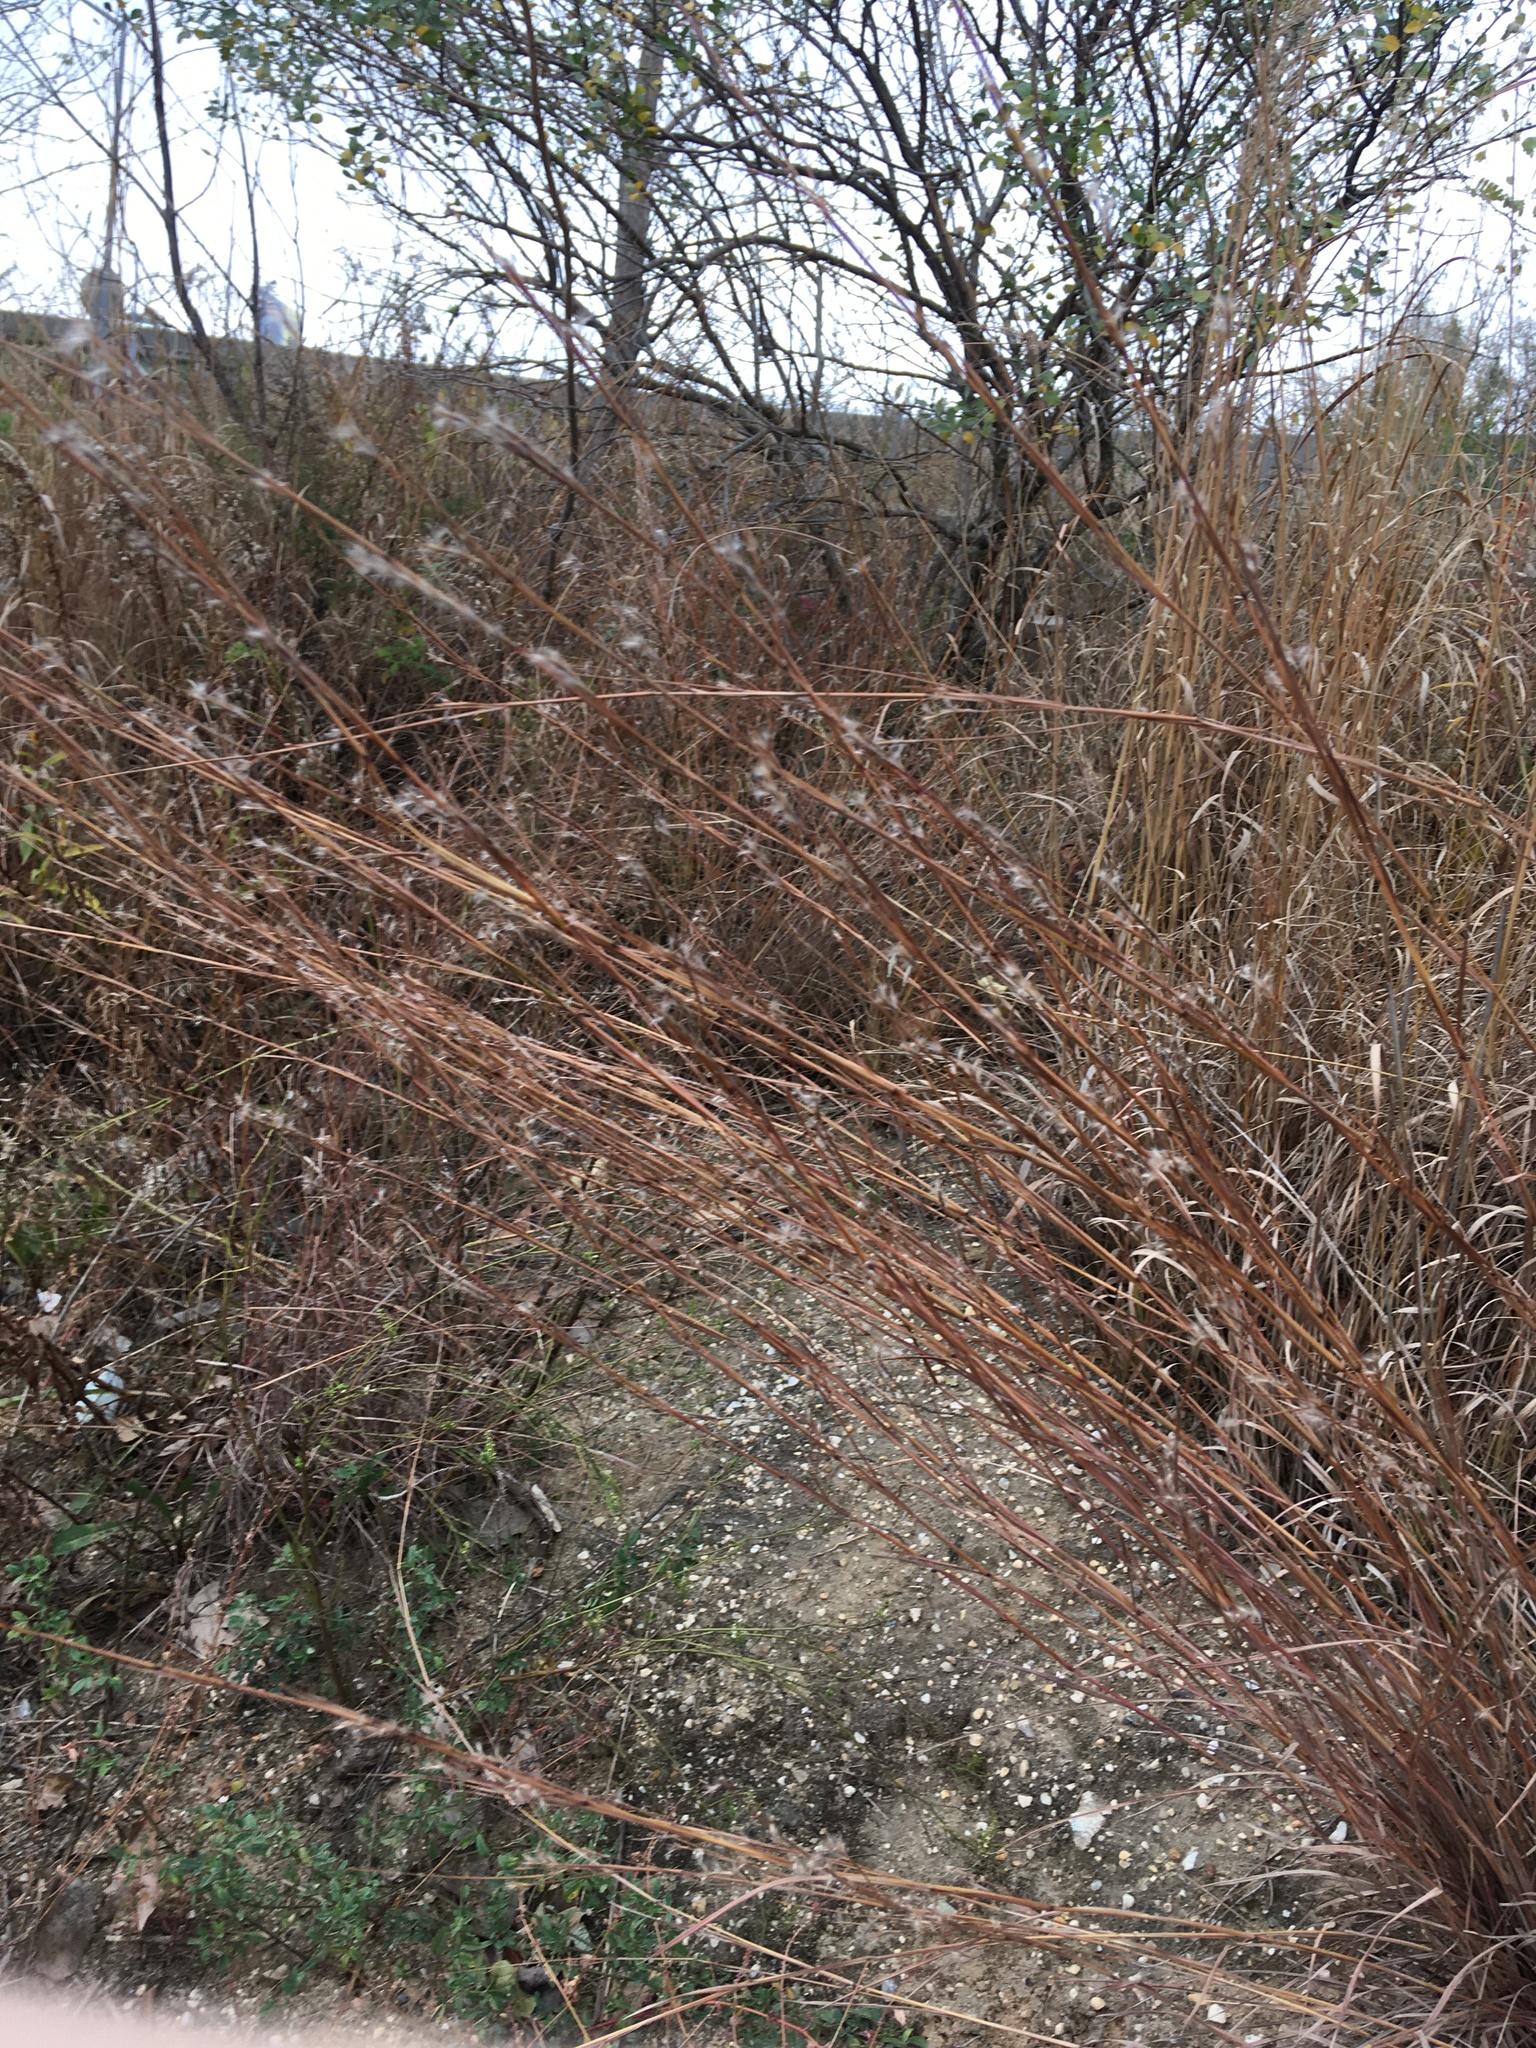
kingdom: Plantae
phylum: Tracheophyta
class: Liliopsida
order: Poales
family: Poaceae
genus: Schizachyrium
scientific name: Schizachyrium scoparium
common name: Little bluestem
